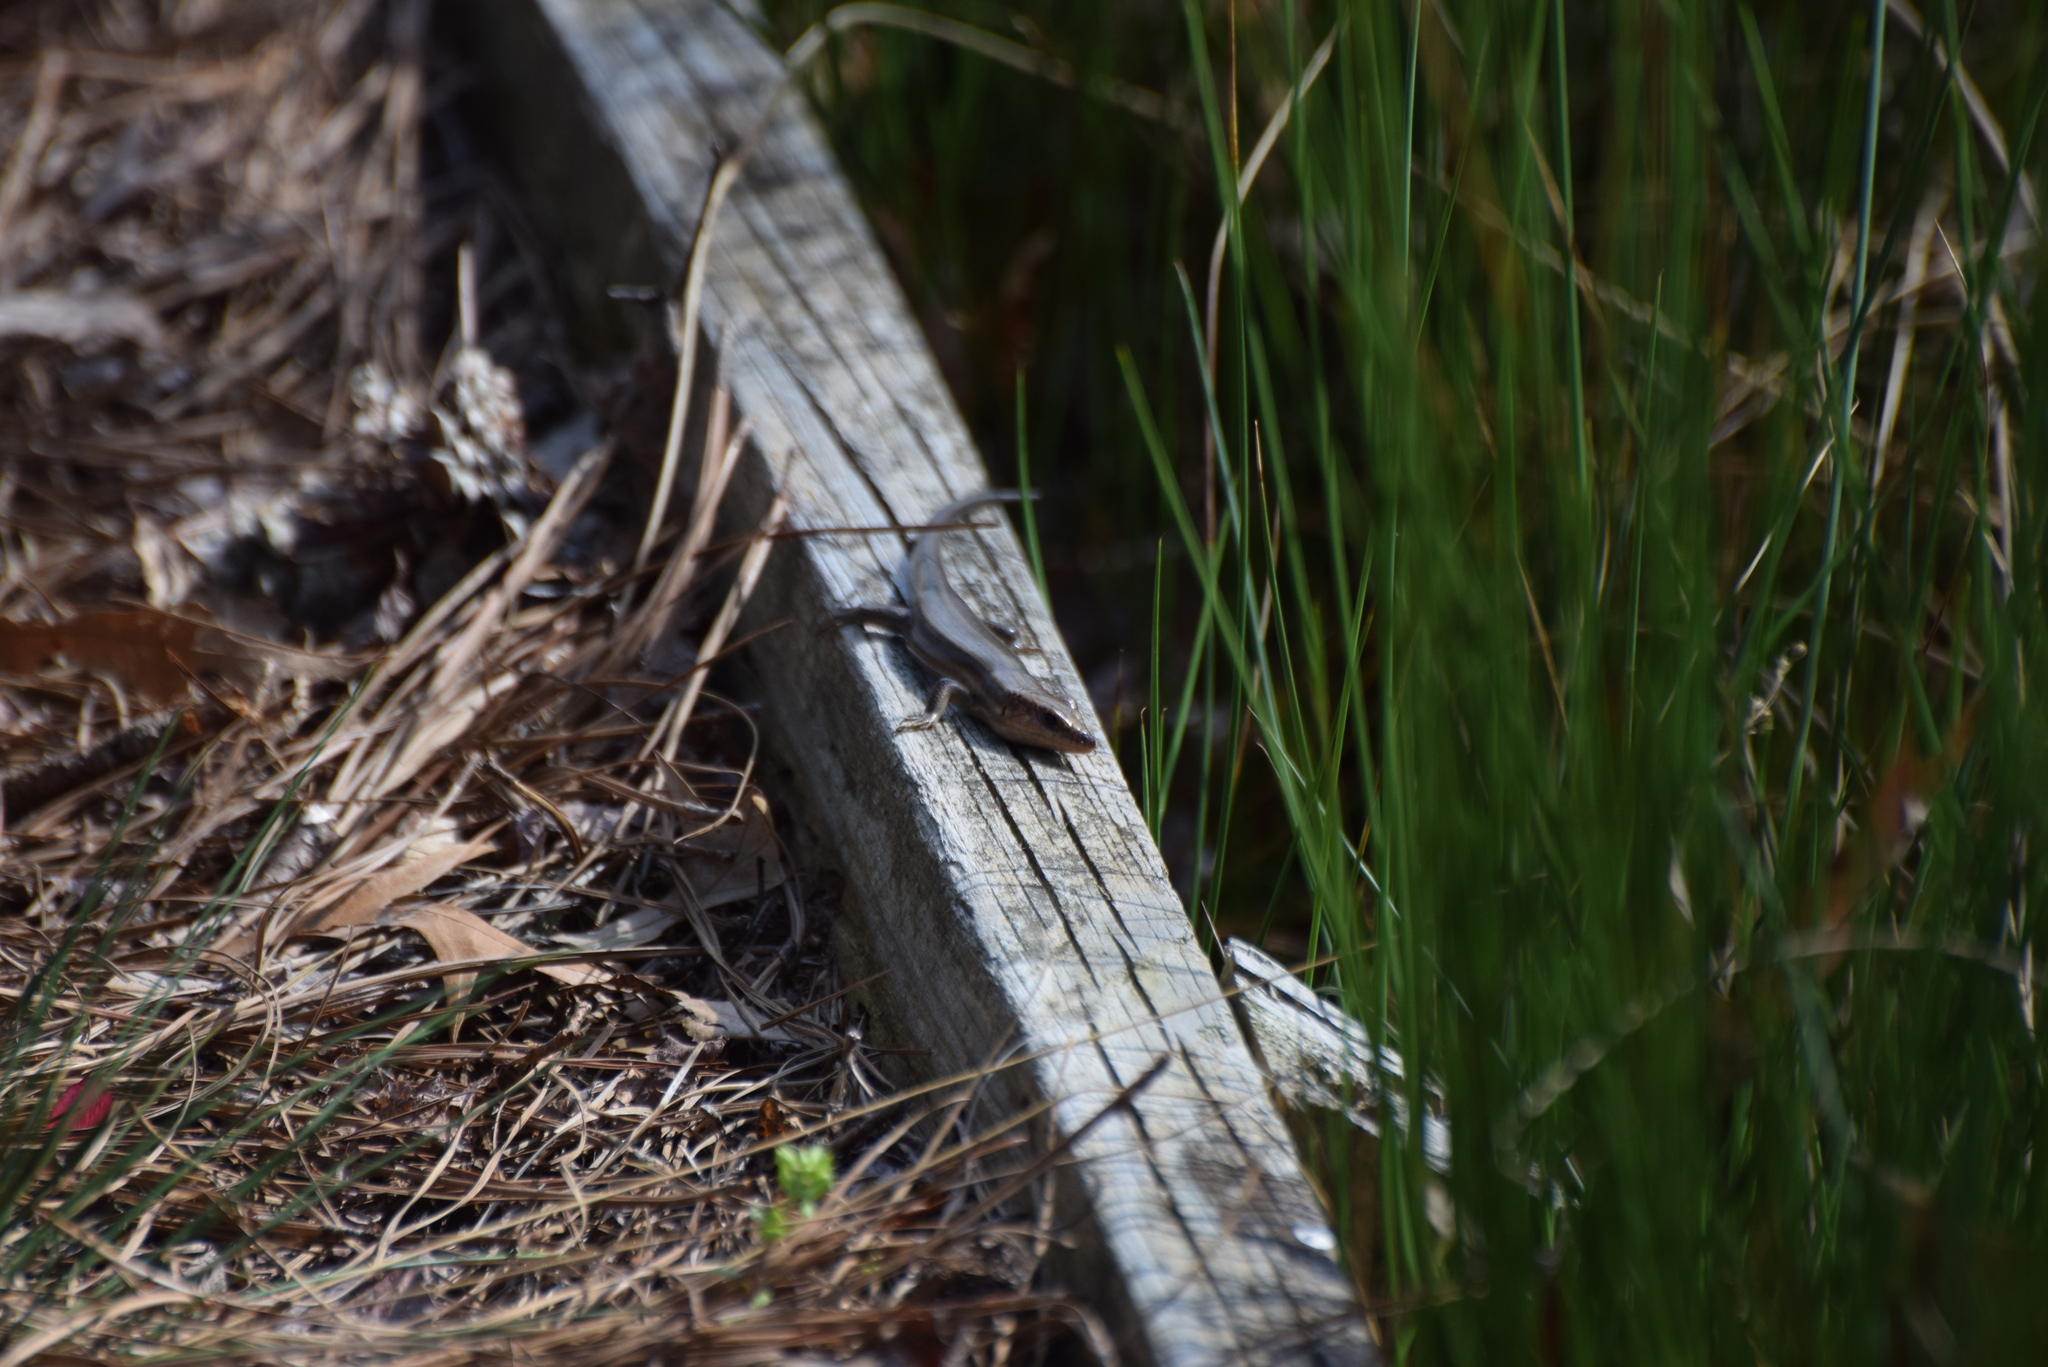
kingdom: Animalia
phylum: Chordata
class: Squamata
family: Scincidae
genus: Plestiodon
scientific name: Plestiodon fasciatus
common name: Five-lined skink
